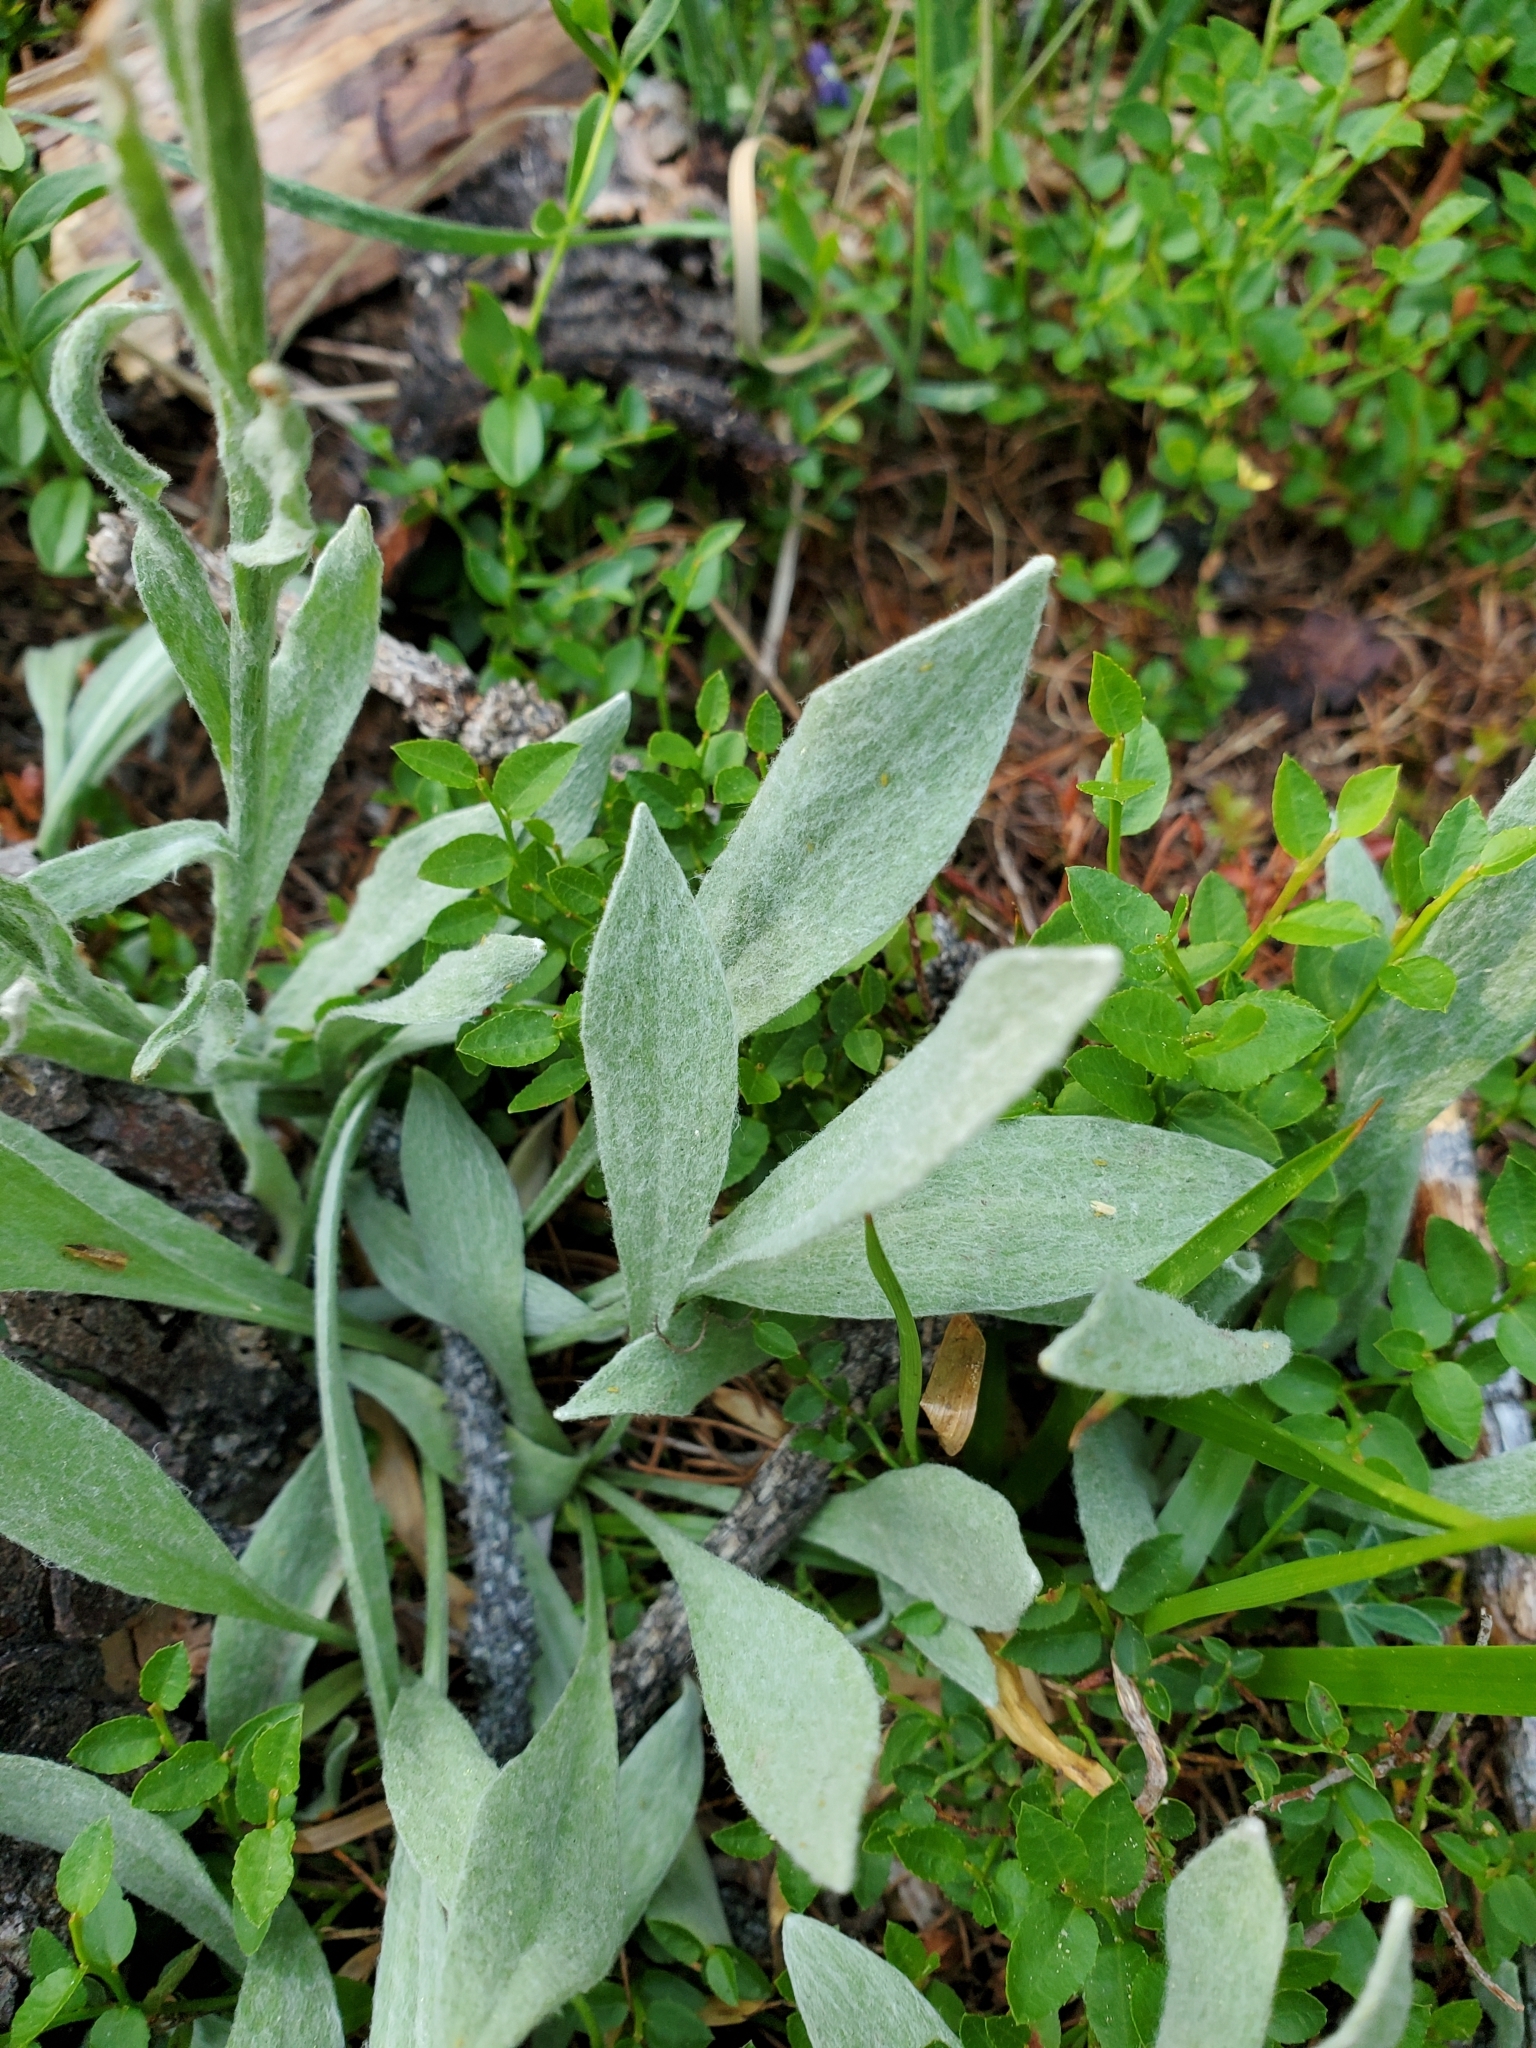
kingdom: Plantae
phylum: Tracheophyta
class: Magnoliopsida
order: Asterales
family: Asteraceae
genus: Antennaria
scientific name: Antennaria lanata
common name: Woolly pussytoes
